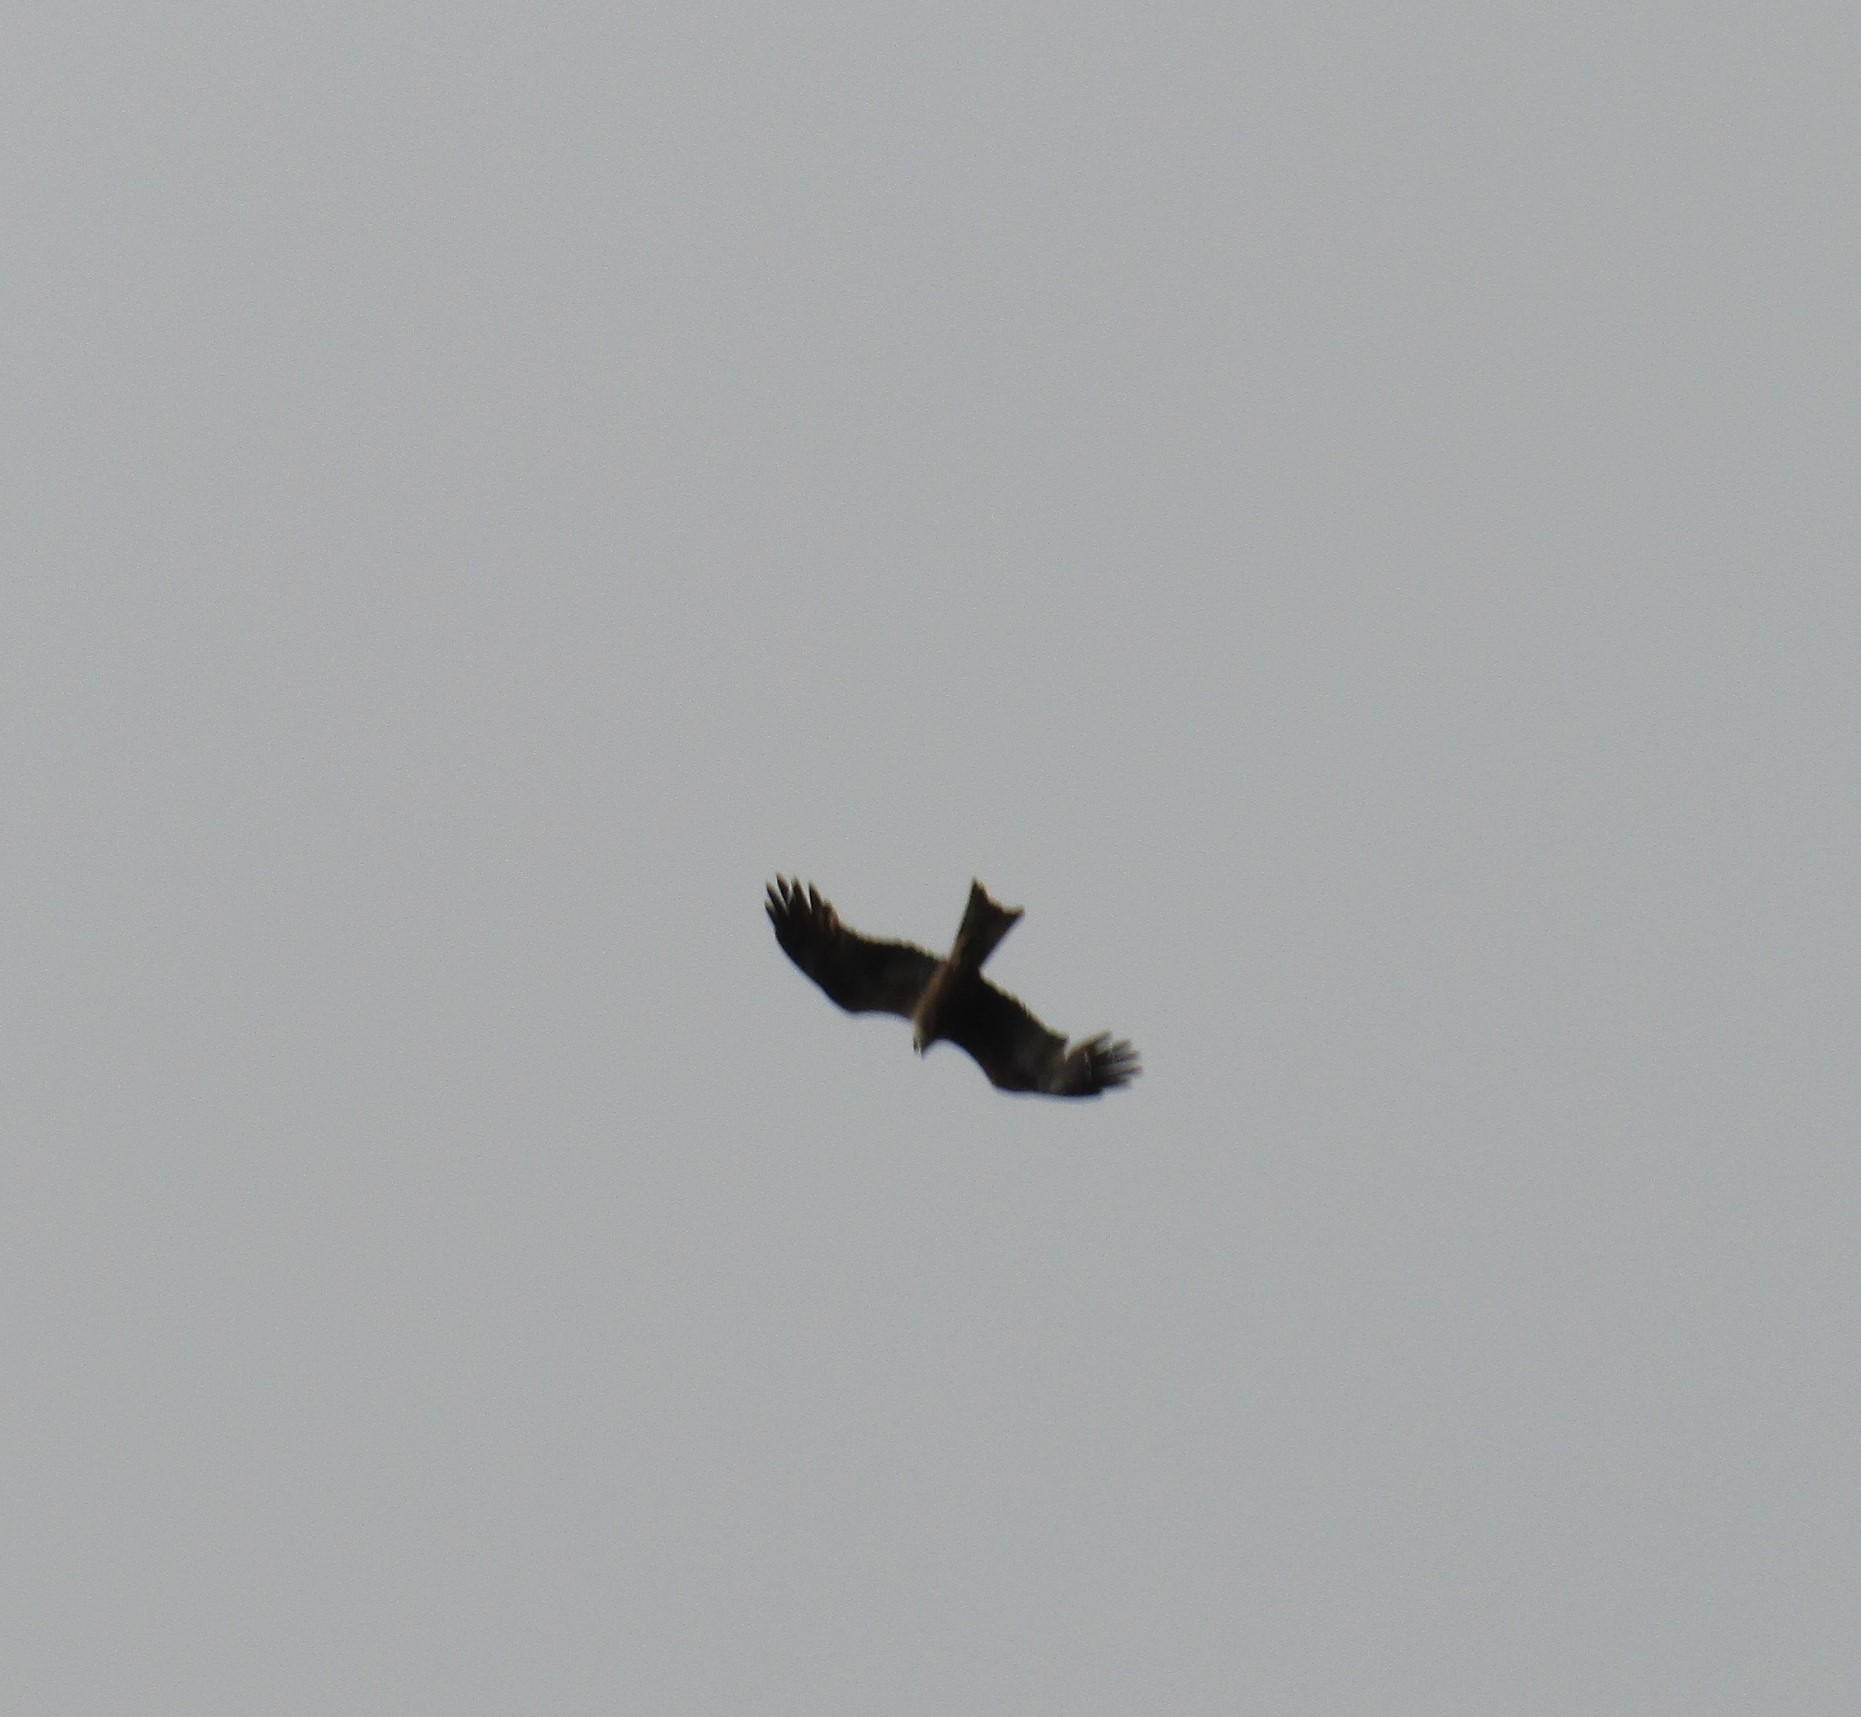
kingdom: Animalia
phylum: Chordata
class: Aves
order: Accipitriformes
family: Accipitridae
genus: Milvus
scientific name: Milvus migrans
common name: Black kite
